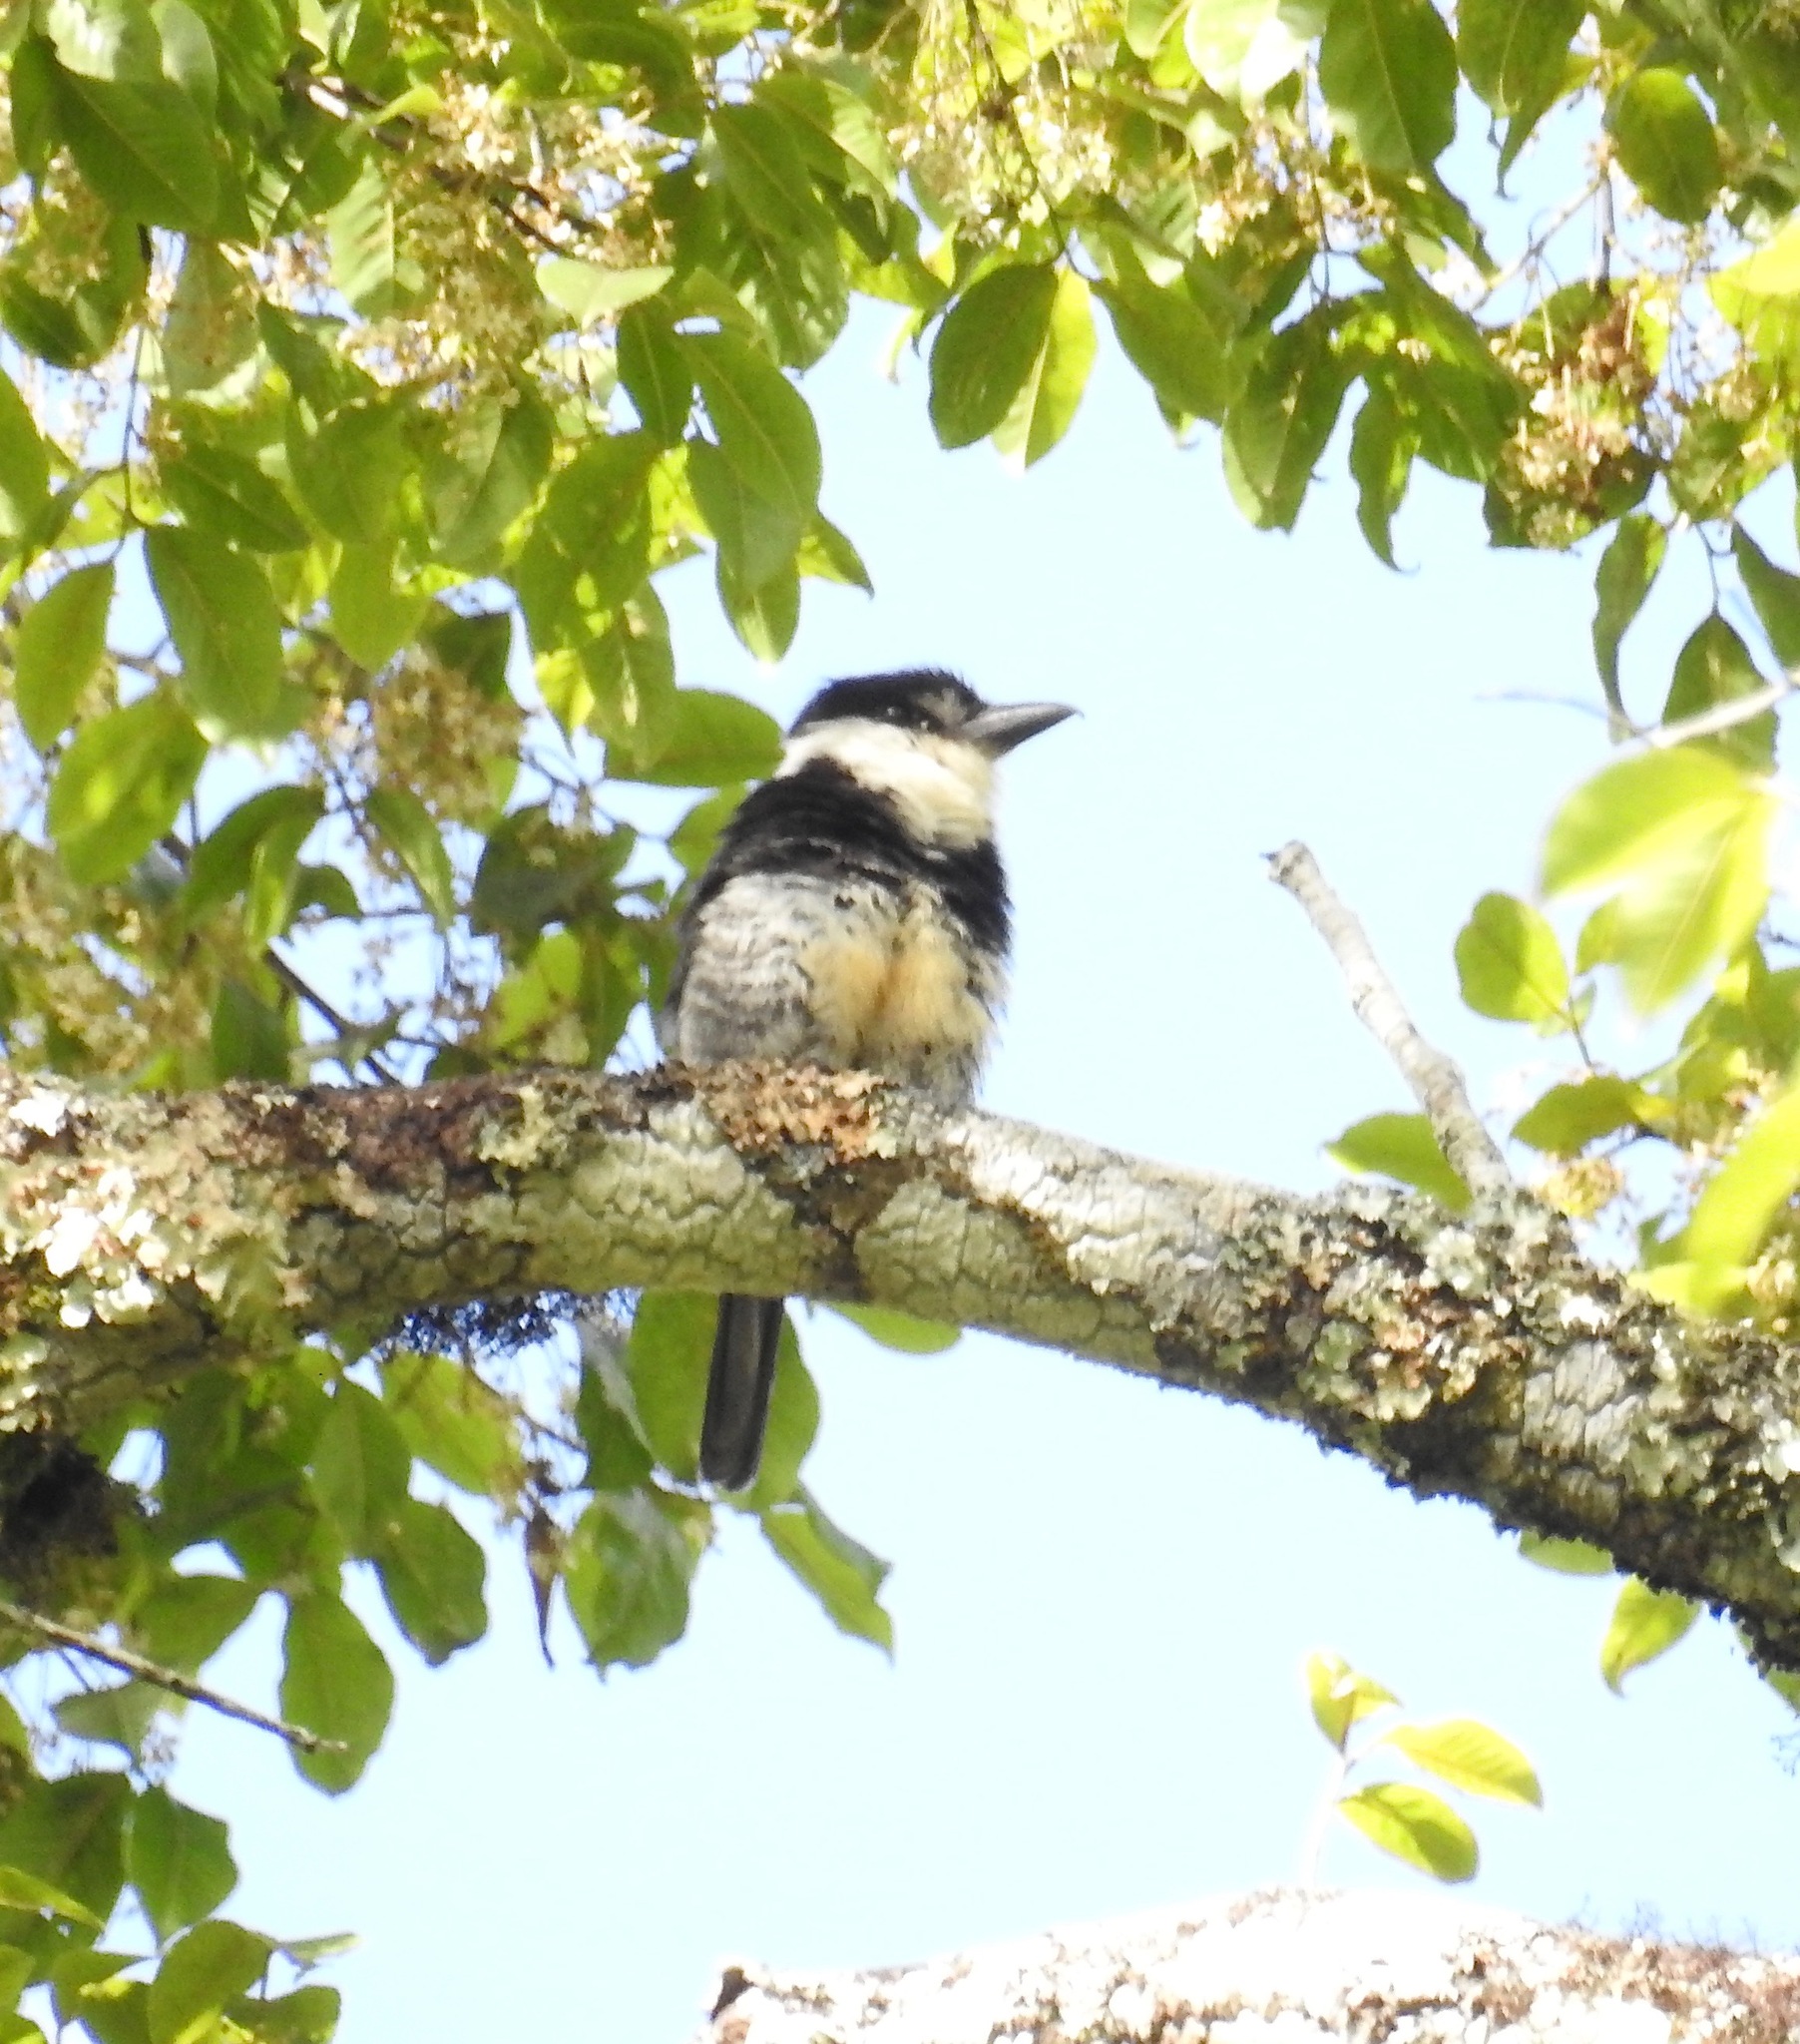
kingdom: Animalia
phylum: Chordata
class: Aves
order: Piciformes
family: Bucconidae
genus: Notharchus
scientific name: Notharchus swainsoni
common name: Buff-bellied puffbird
